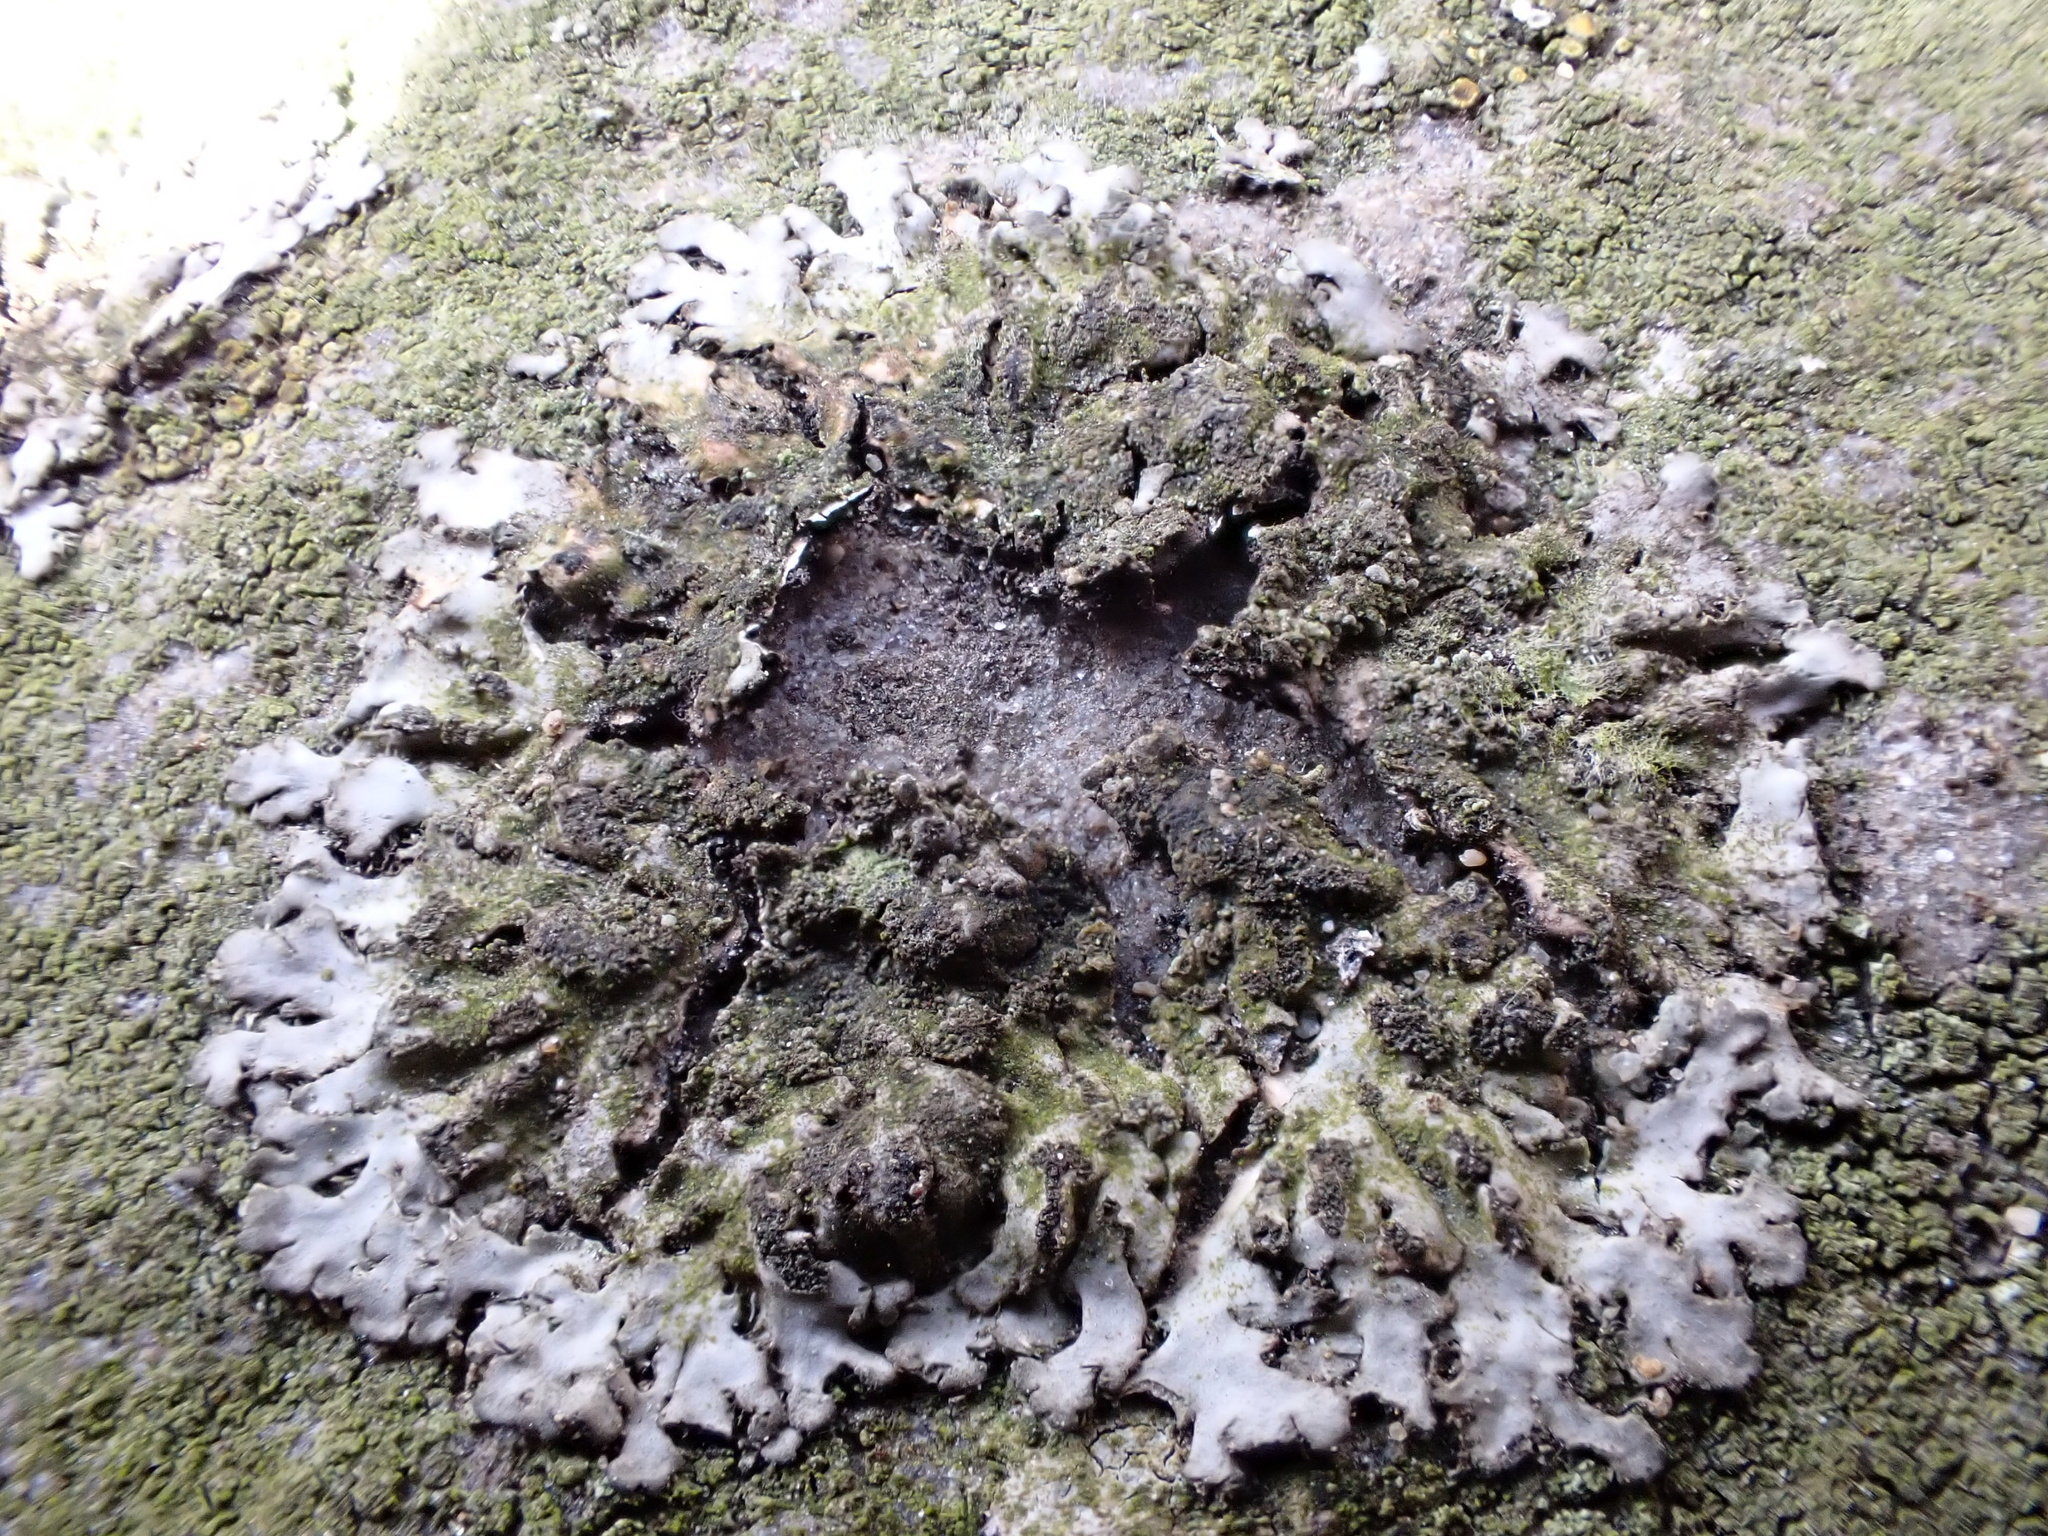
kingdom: Fungi
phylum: Ascomycota
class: Lecanoromycetes
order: Caliciales
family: Physciaceae
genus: Phaeophyscia
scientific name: Phaeophyscia orbicularis
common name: Mealy shadow lichen
